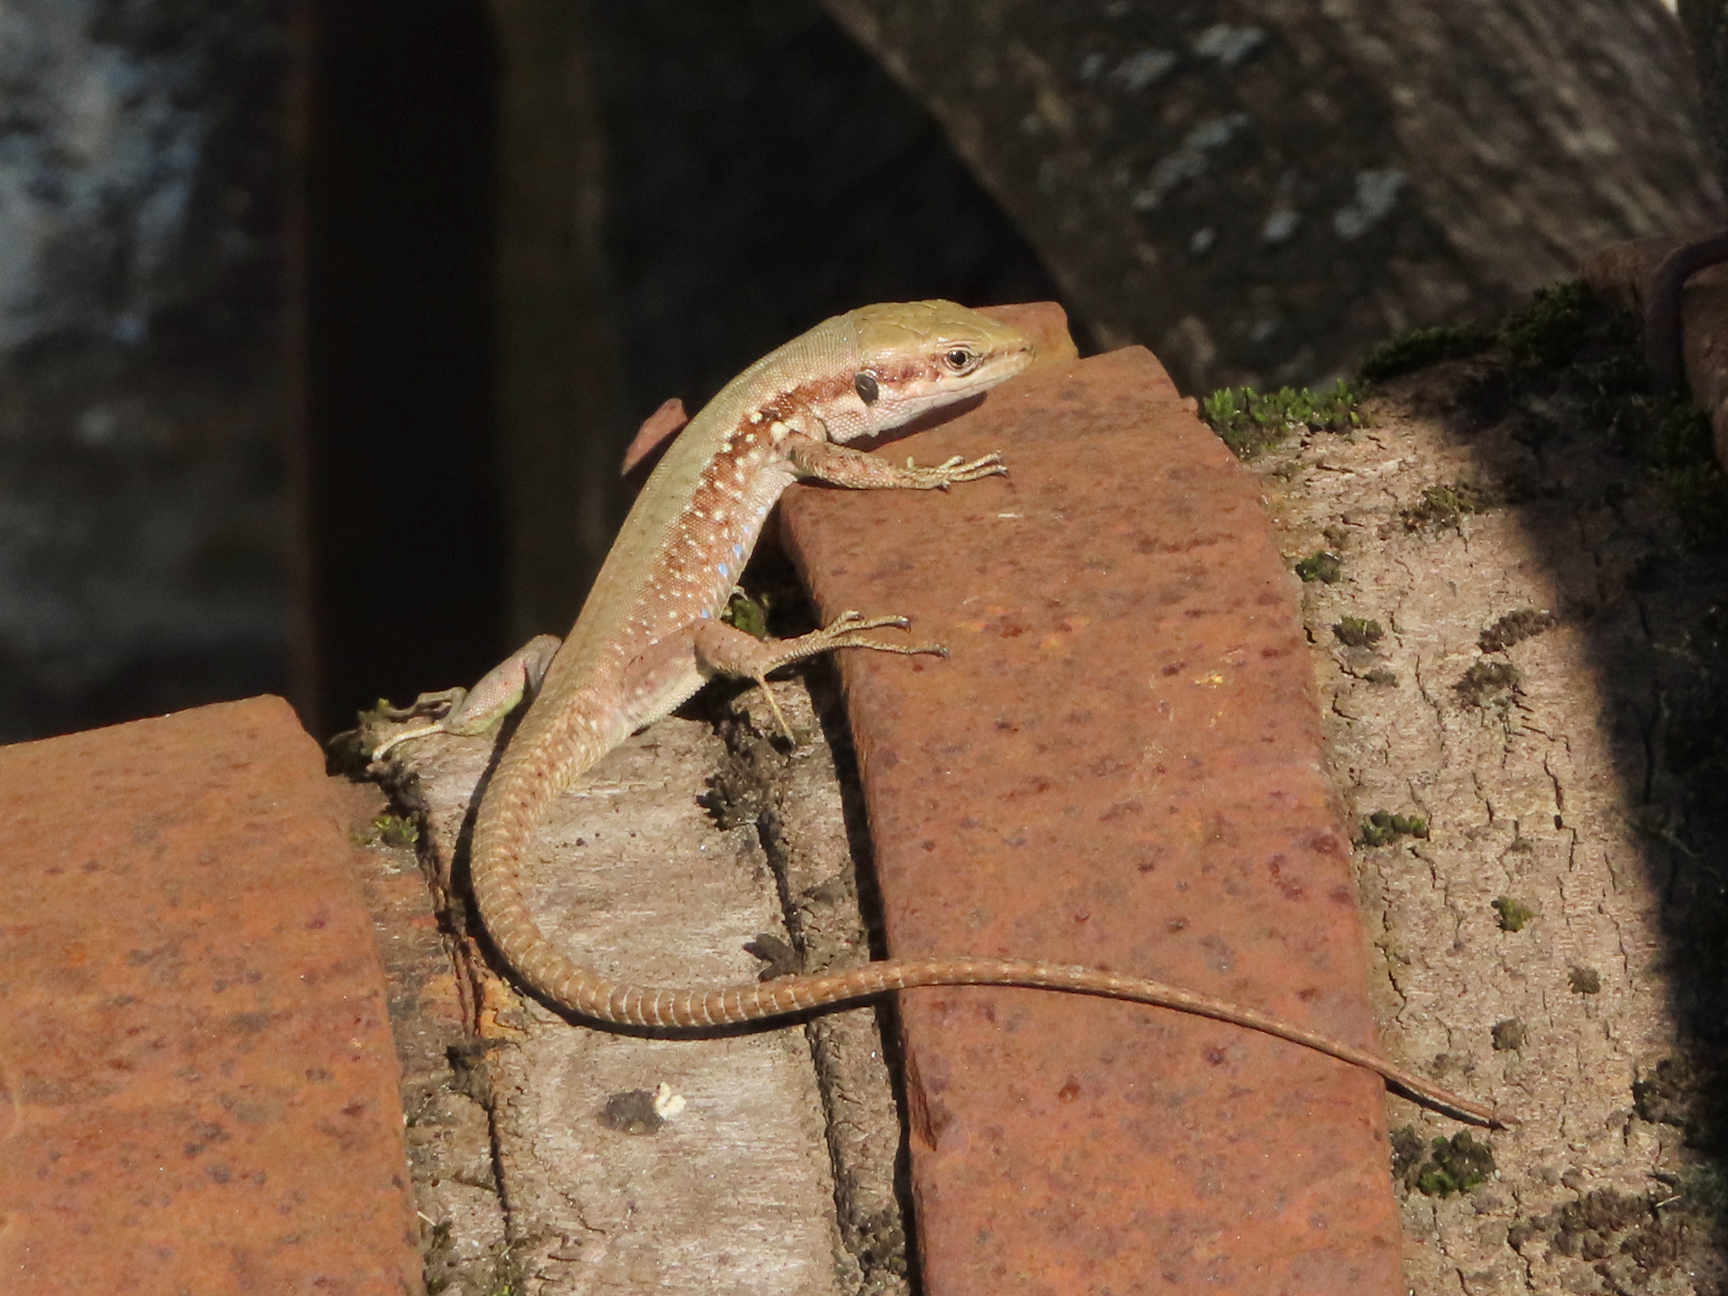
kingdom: Animalia
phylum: Chordata
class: Squamata
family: Lacertidae
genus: Phoenicolacerta
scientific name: Phoenicolacerta laevis
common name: Lebanon lizard
